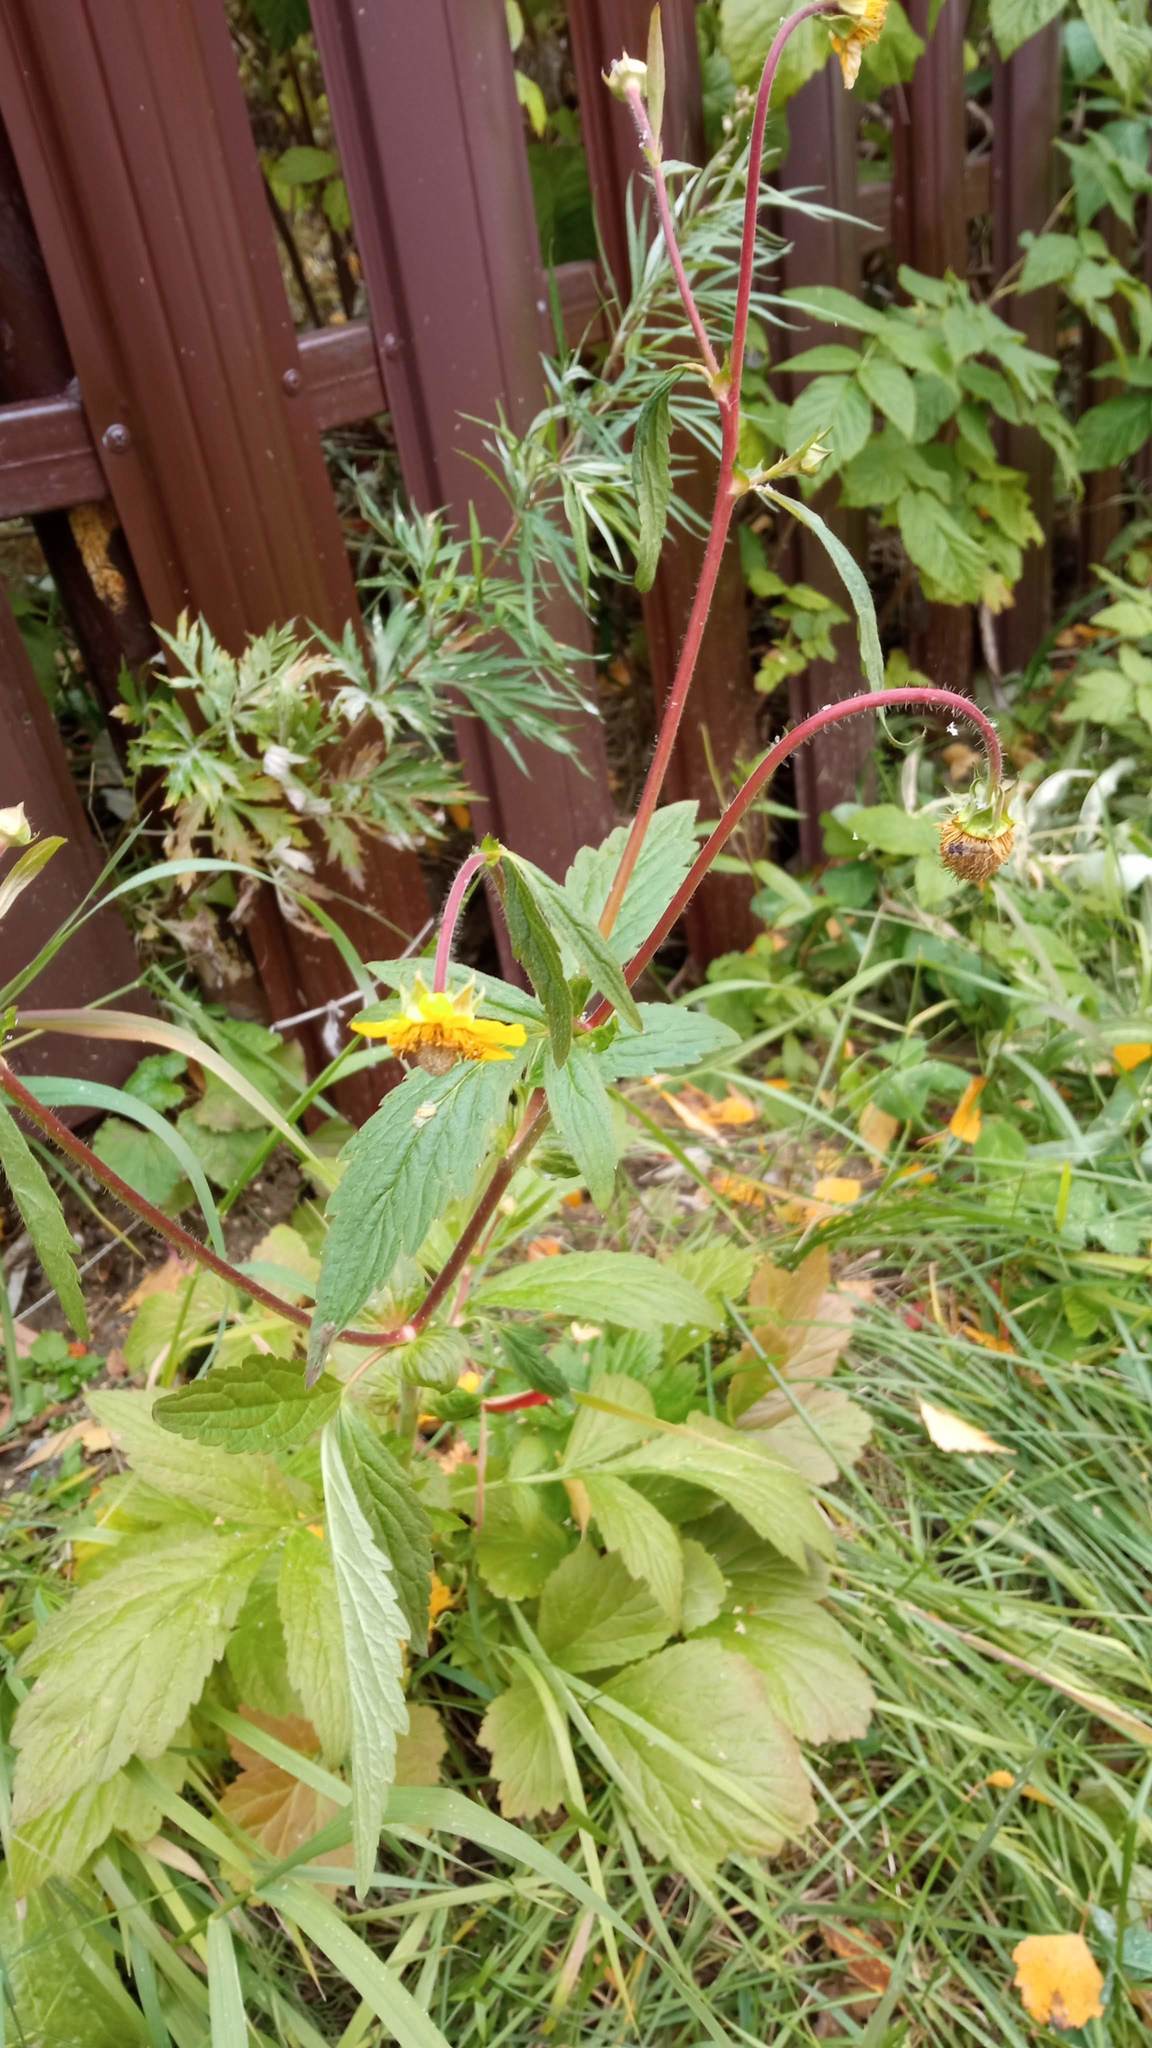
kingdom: Plantae
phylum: Tracheophyta
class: Magnoliopsida
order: Rosales
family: Rosaceae
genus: Geum
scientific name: Geum aurantiacum
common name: Orange avens
